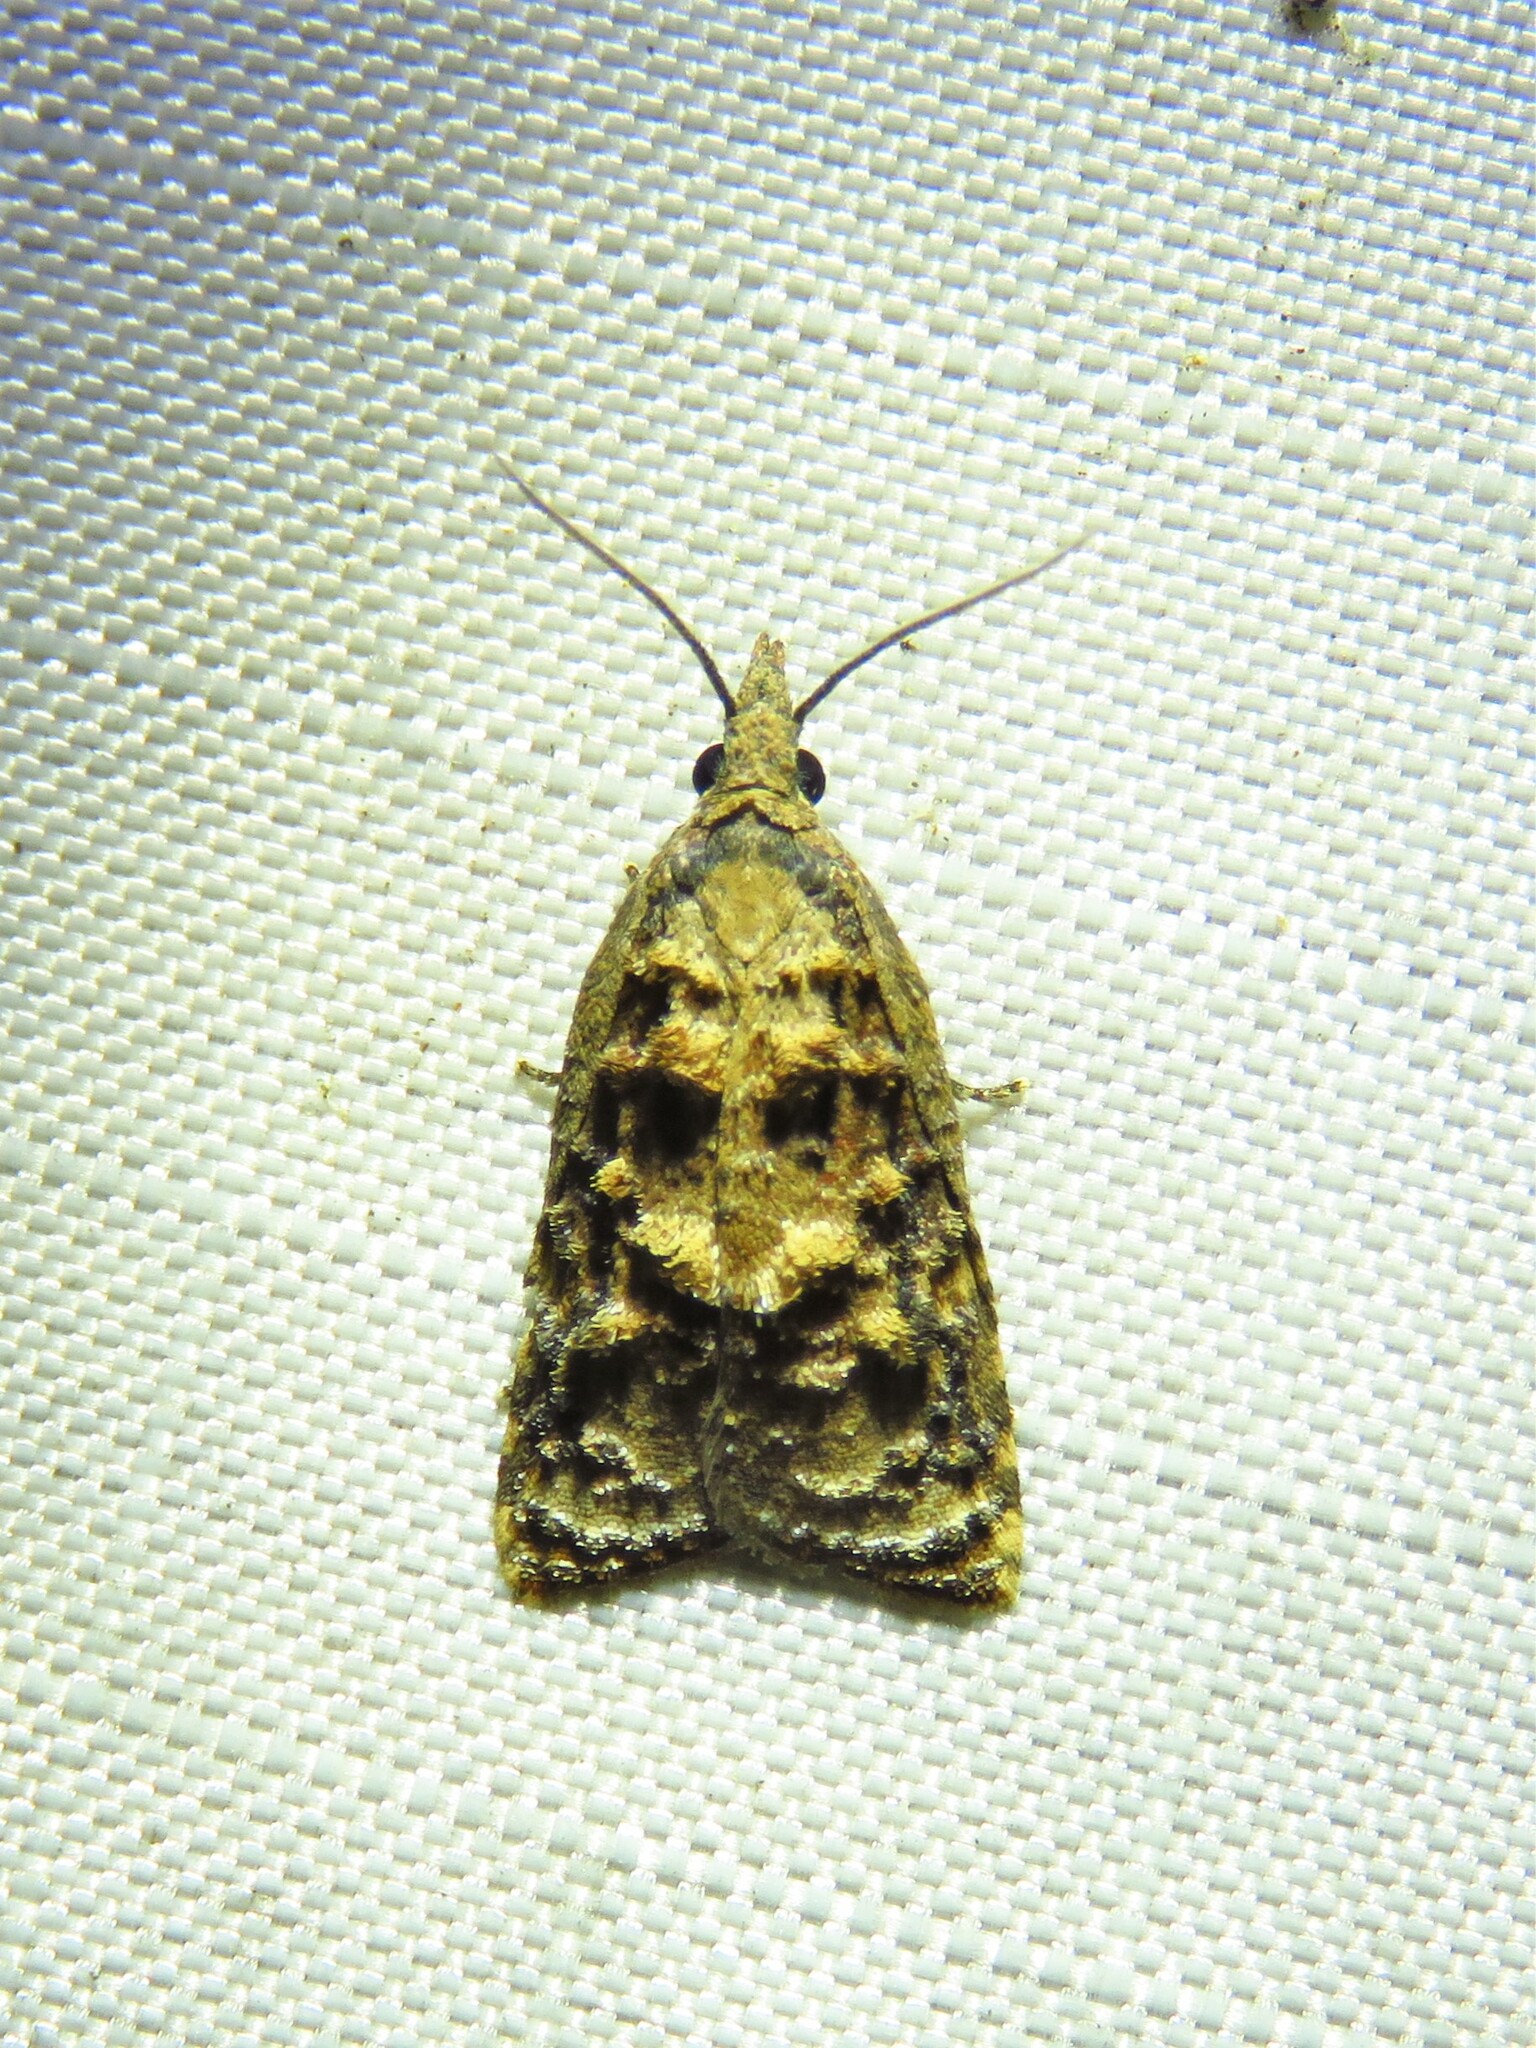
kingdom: Animalia
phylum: Arthropoda
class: Insecta
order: Lepidoptera
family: Tortricidae
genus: Platynota
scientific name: Platynota rostrana
